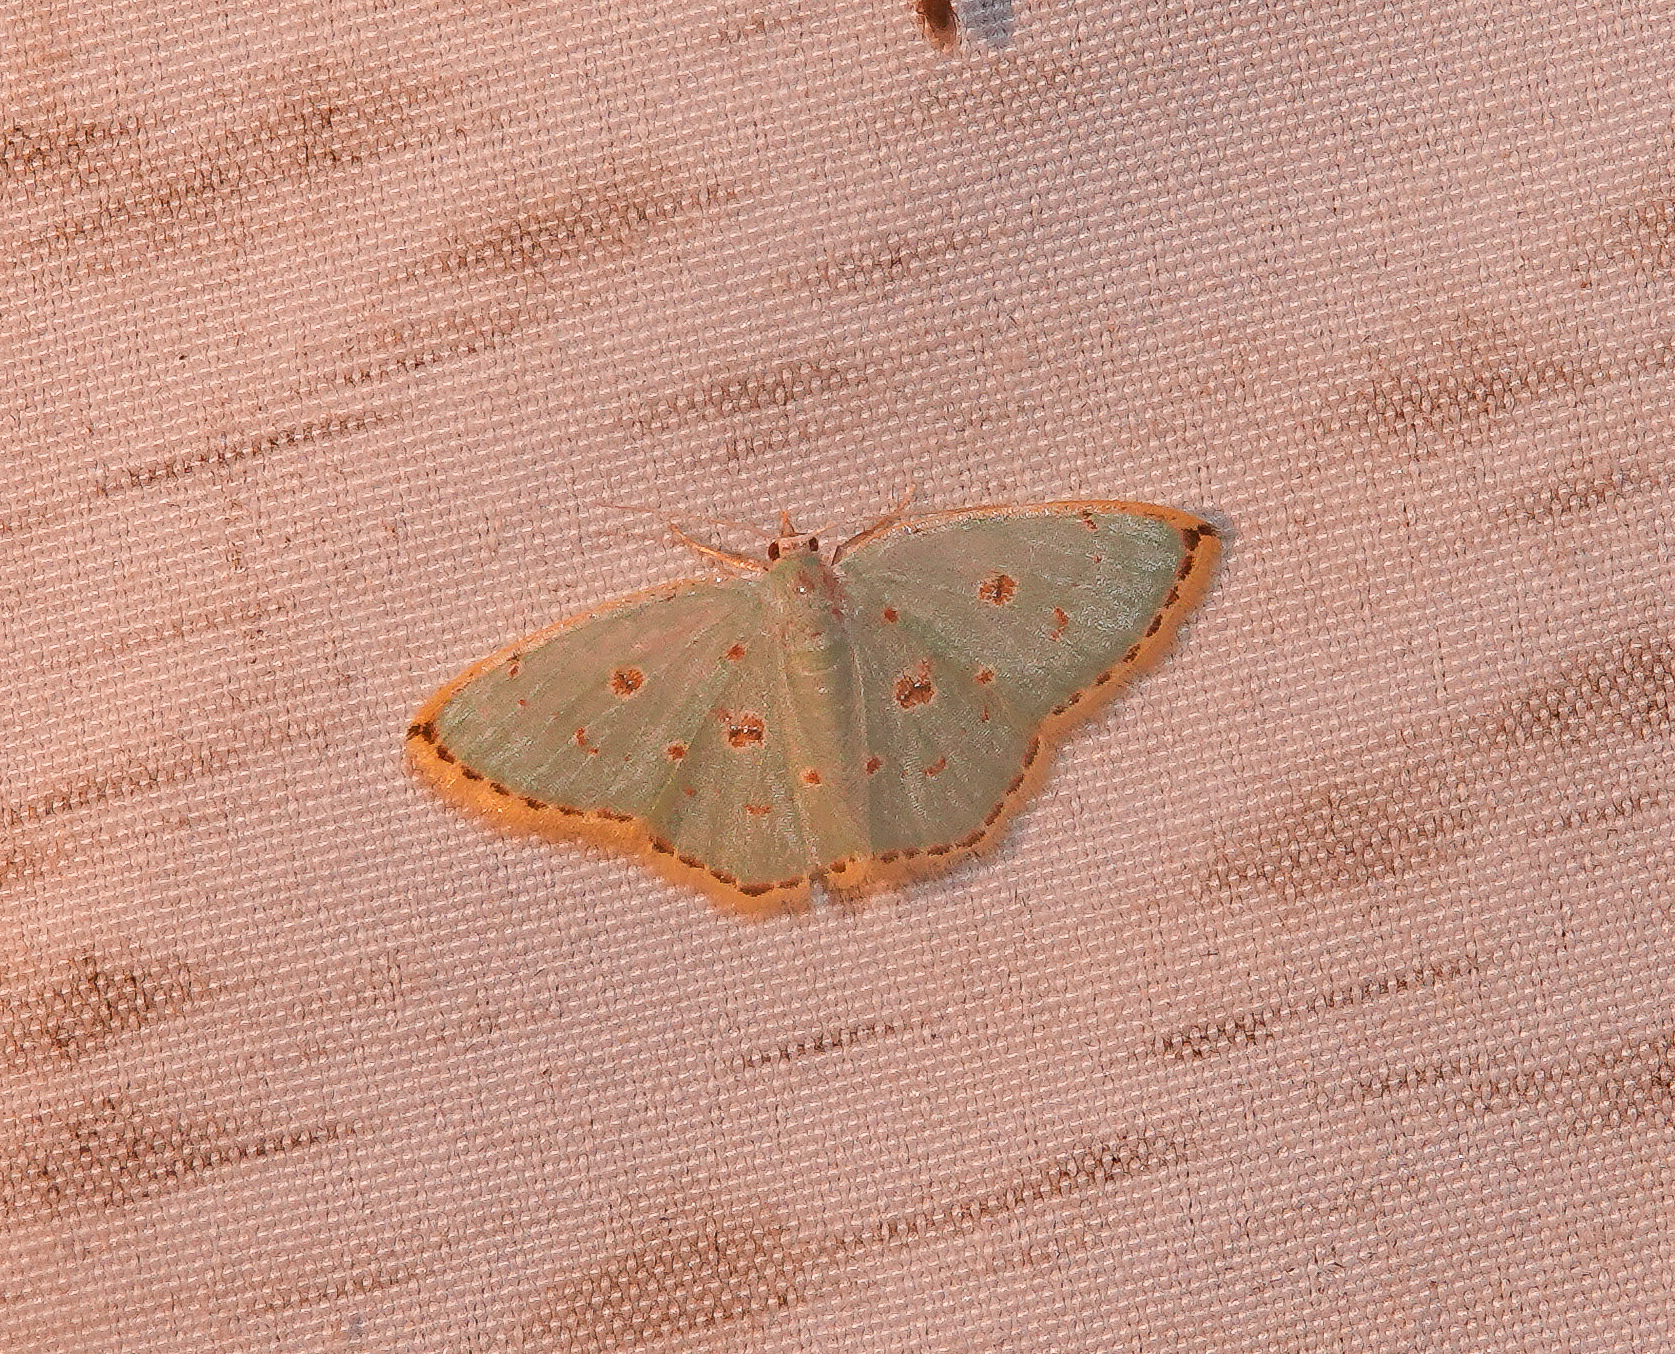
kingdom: Animalia
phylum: Arthropoda
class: Insecta
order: Lepidoptera
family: Geometridae
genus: Comostola
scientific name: Comostola laesaria
